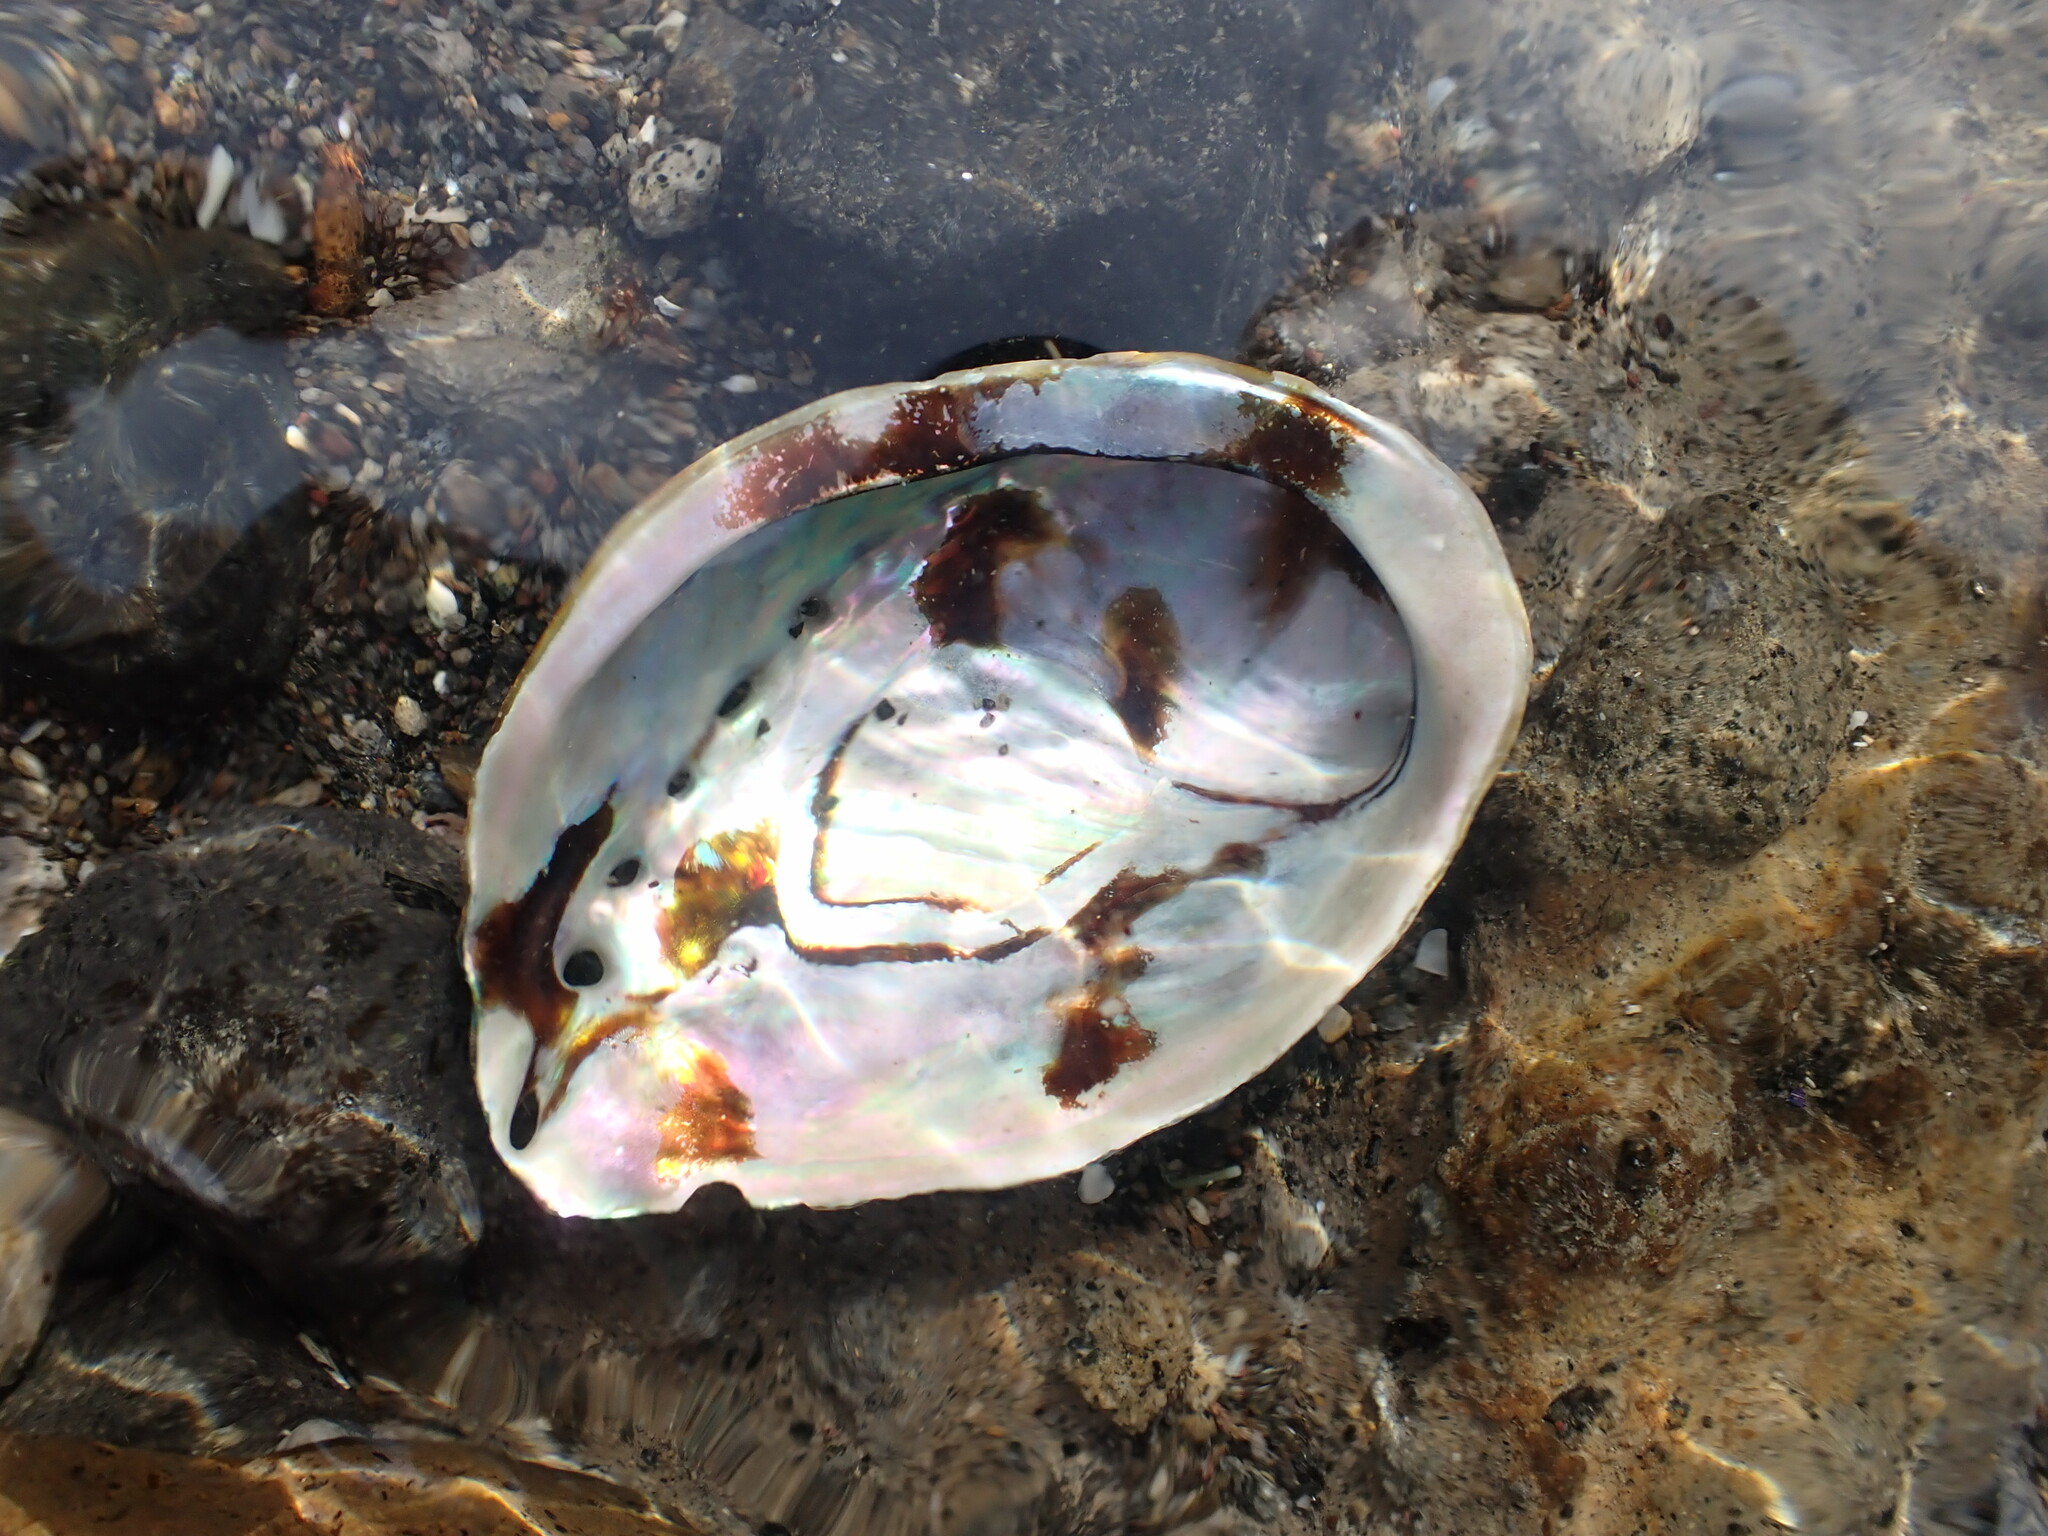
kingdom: Animalia
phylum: Mollusca
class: Gastropoda
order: Lepetellida
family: Haliotidae
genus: Haliotis
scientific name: Haliotis iris
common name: Abalone
